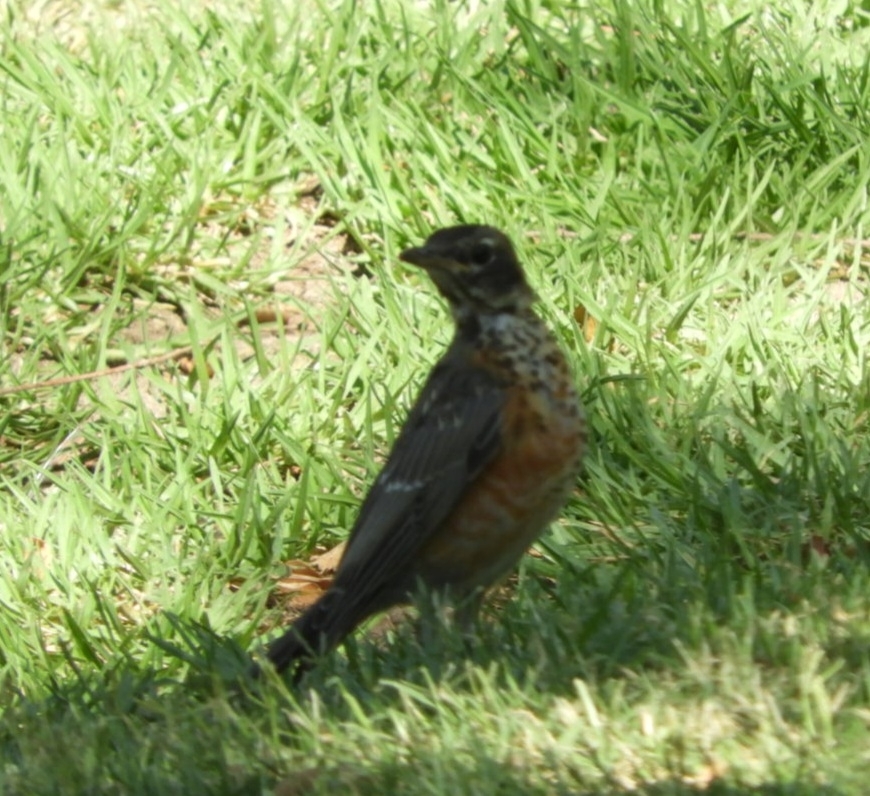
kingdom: Animalia
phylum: Chordata
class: Aves
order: Passeriformes
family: Turdidae
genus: Turdus
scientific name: Turdus migratorius
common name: American robin
